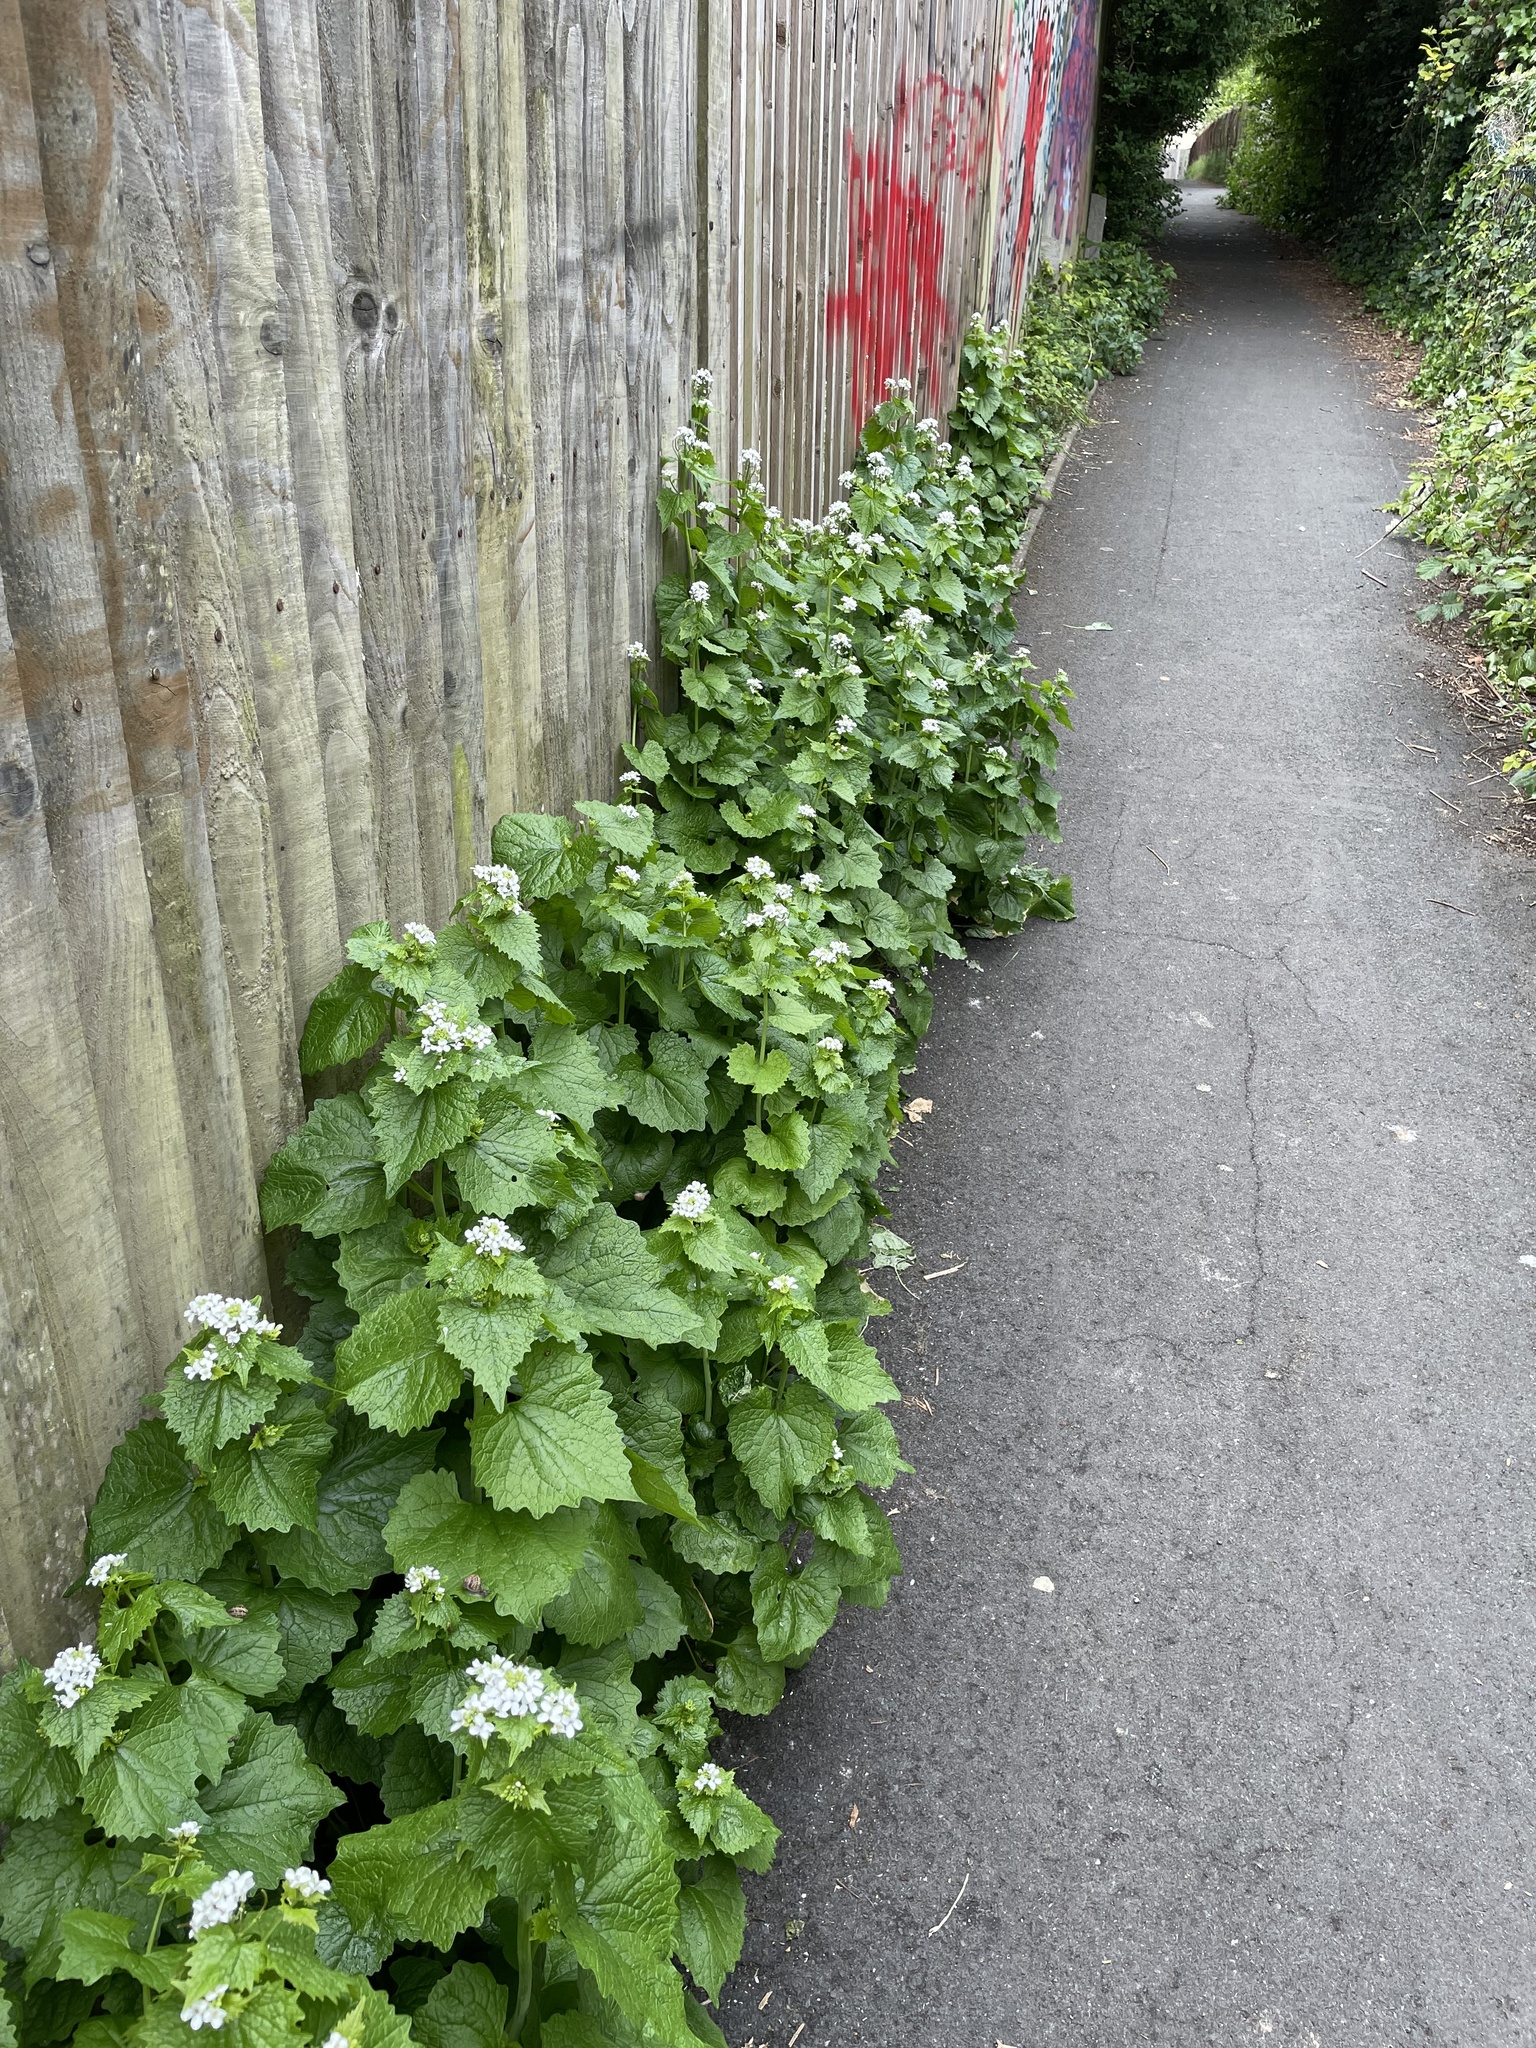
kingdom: Plantae
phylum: Tracheophyta
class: Magnoliopsida
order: Brassicales
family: Brassicaceae
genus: Alliaria
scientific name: Alliaria petiolata
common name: Garlic mustard
